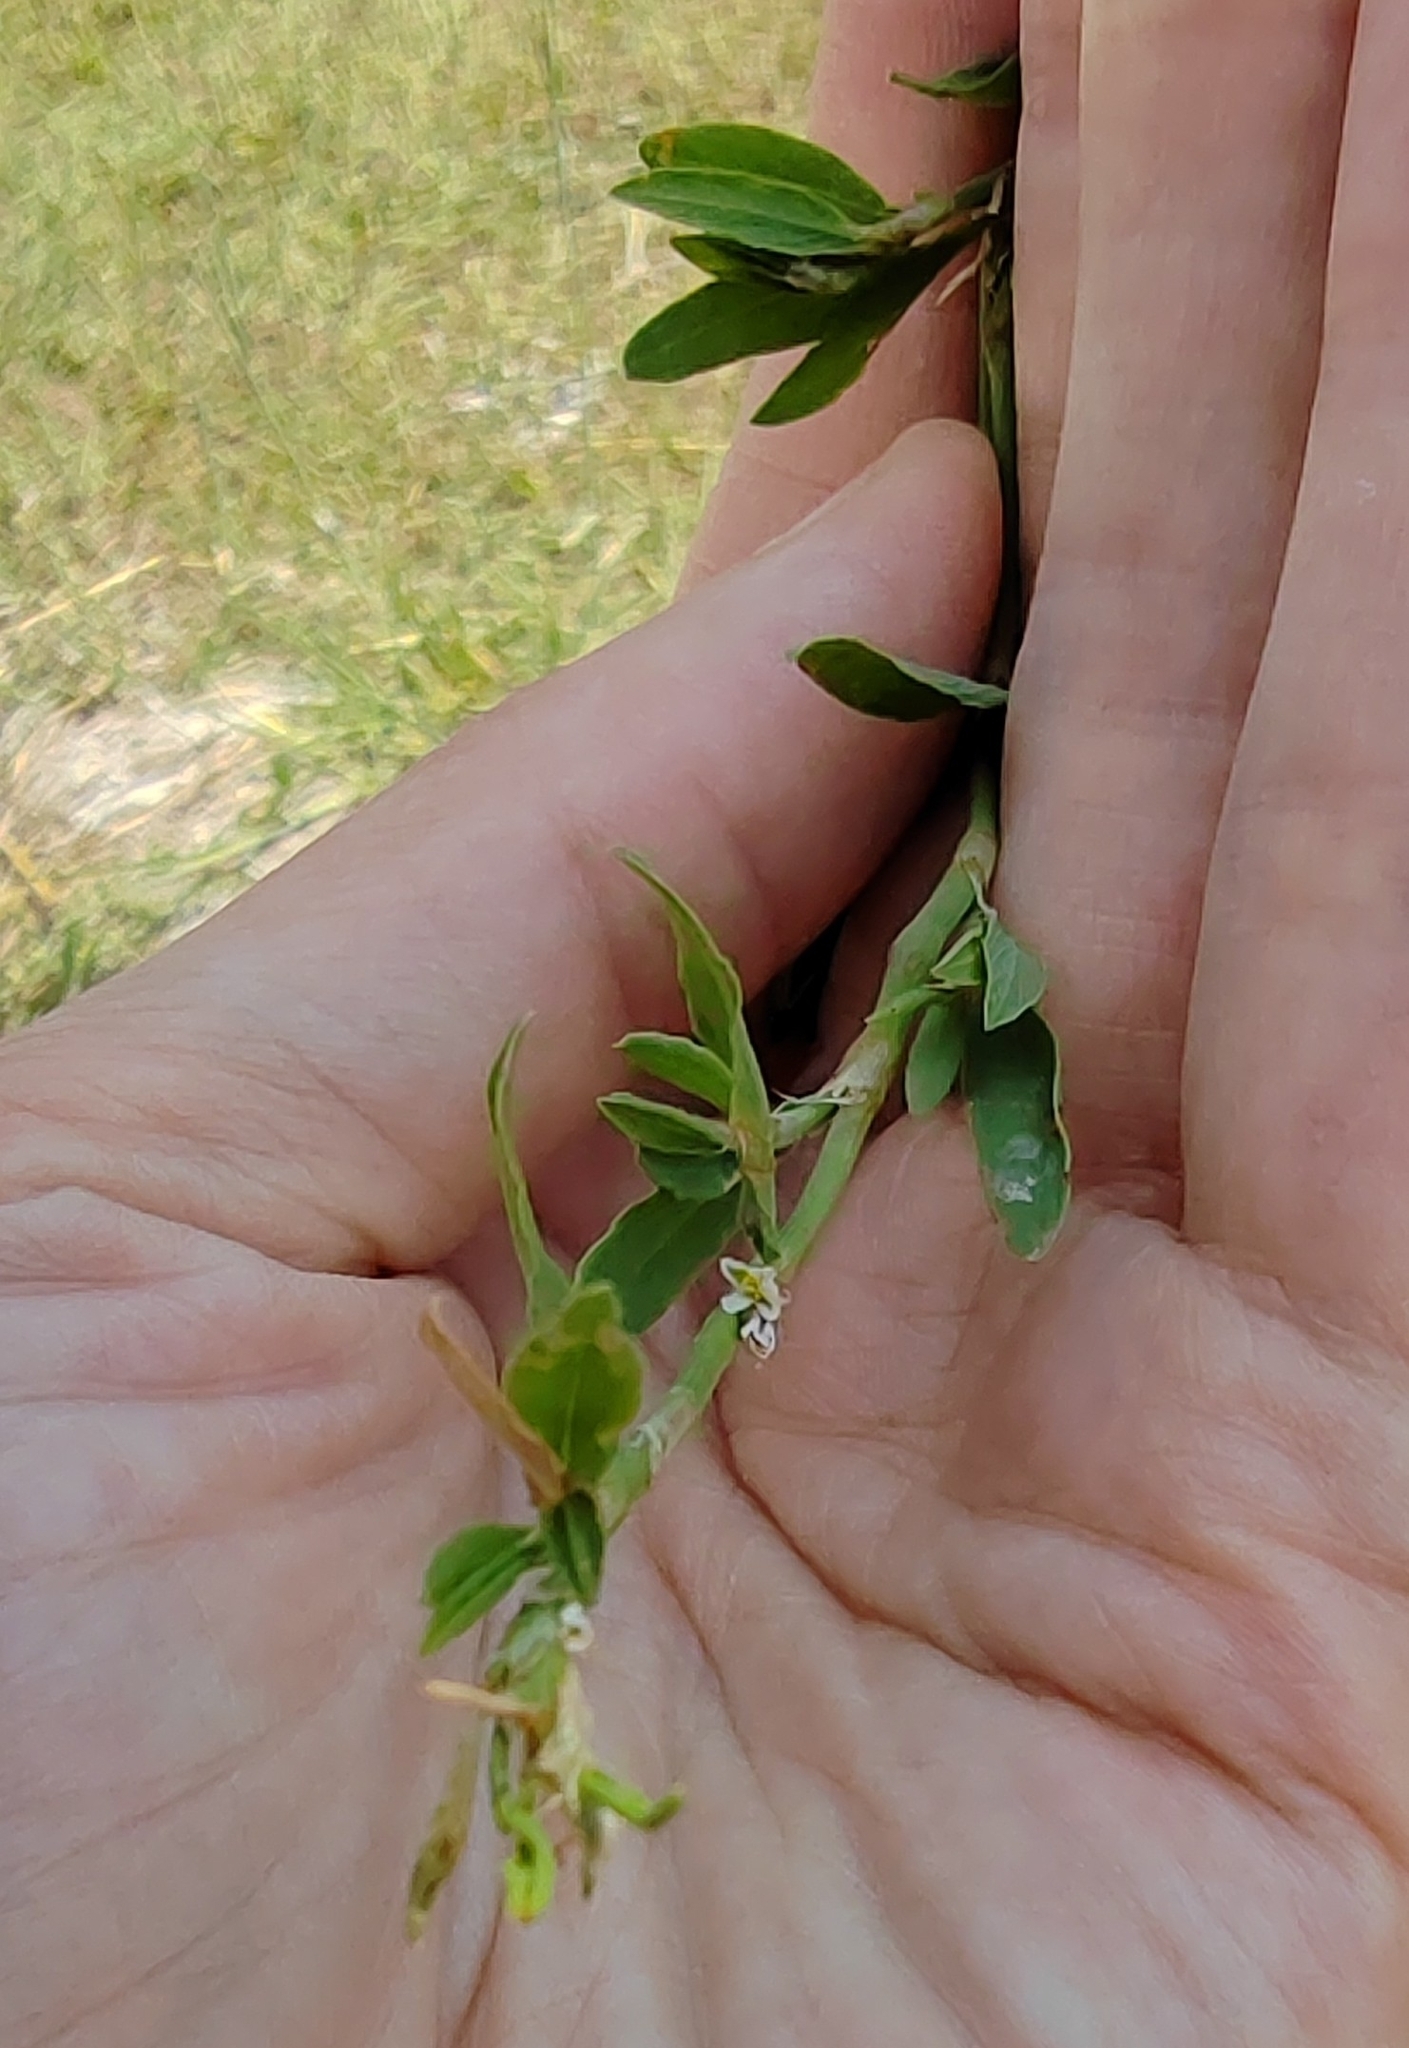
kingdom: Plantae
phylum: Tracheophyta
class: Magnoliopsida
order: Caryophyllales
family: Polygonaceae
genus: Polygonum
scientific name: Polygonum
